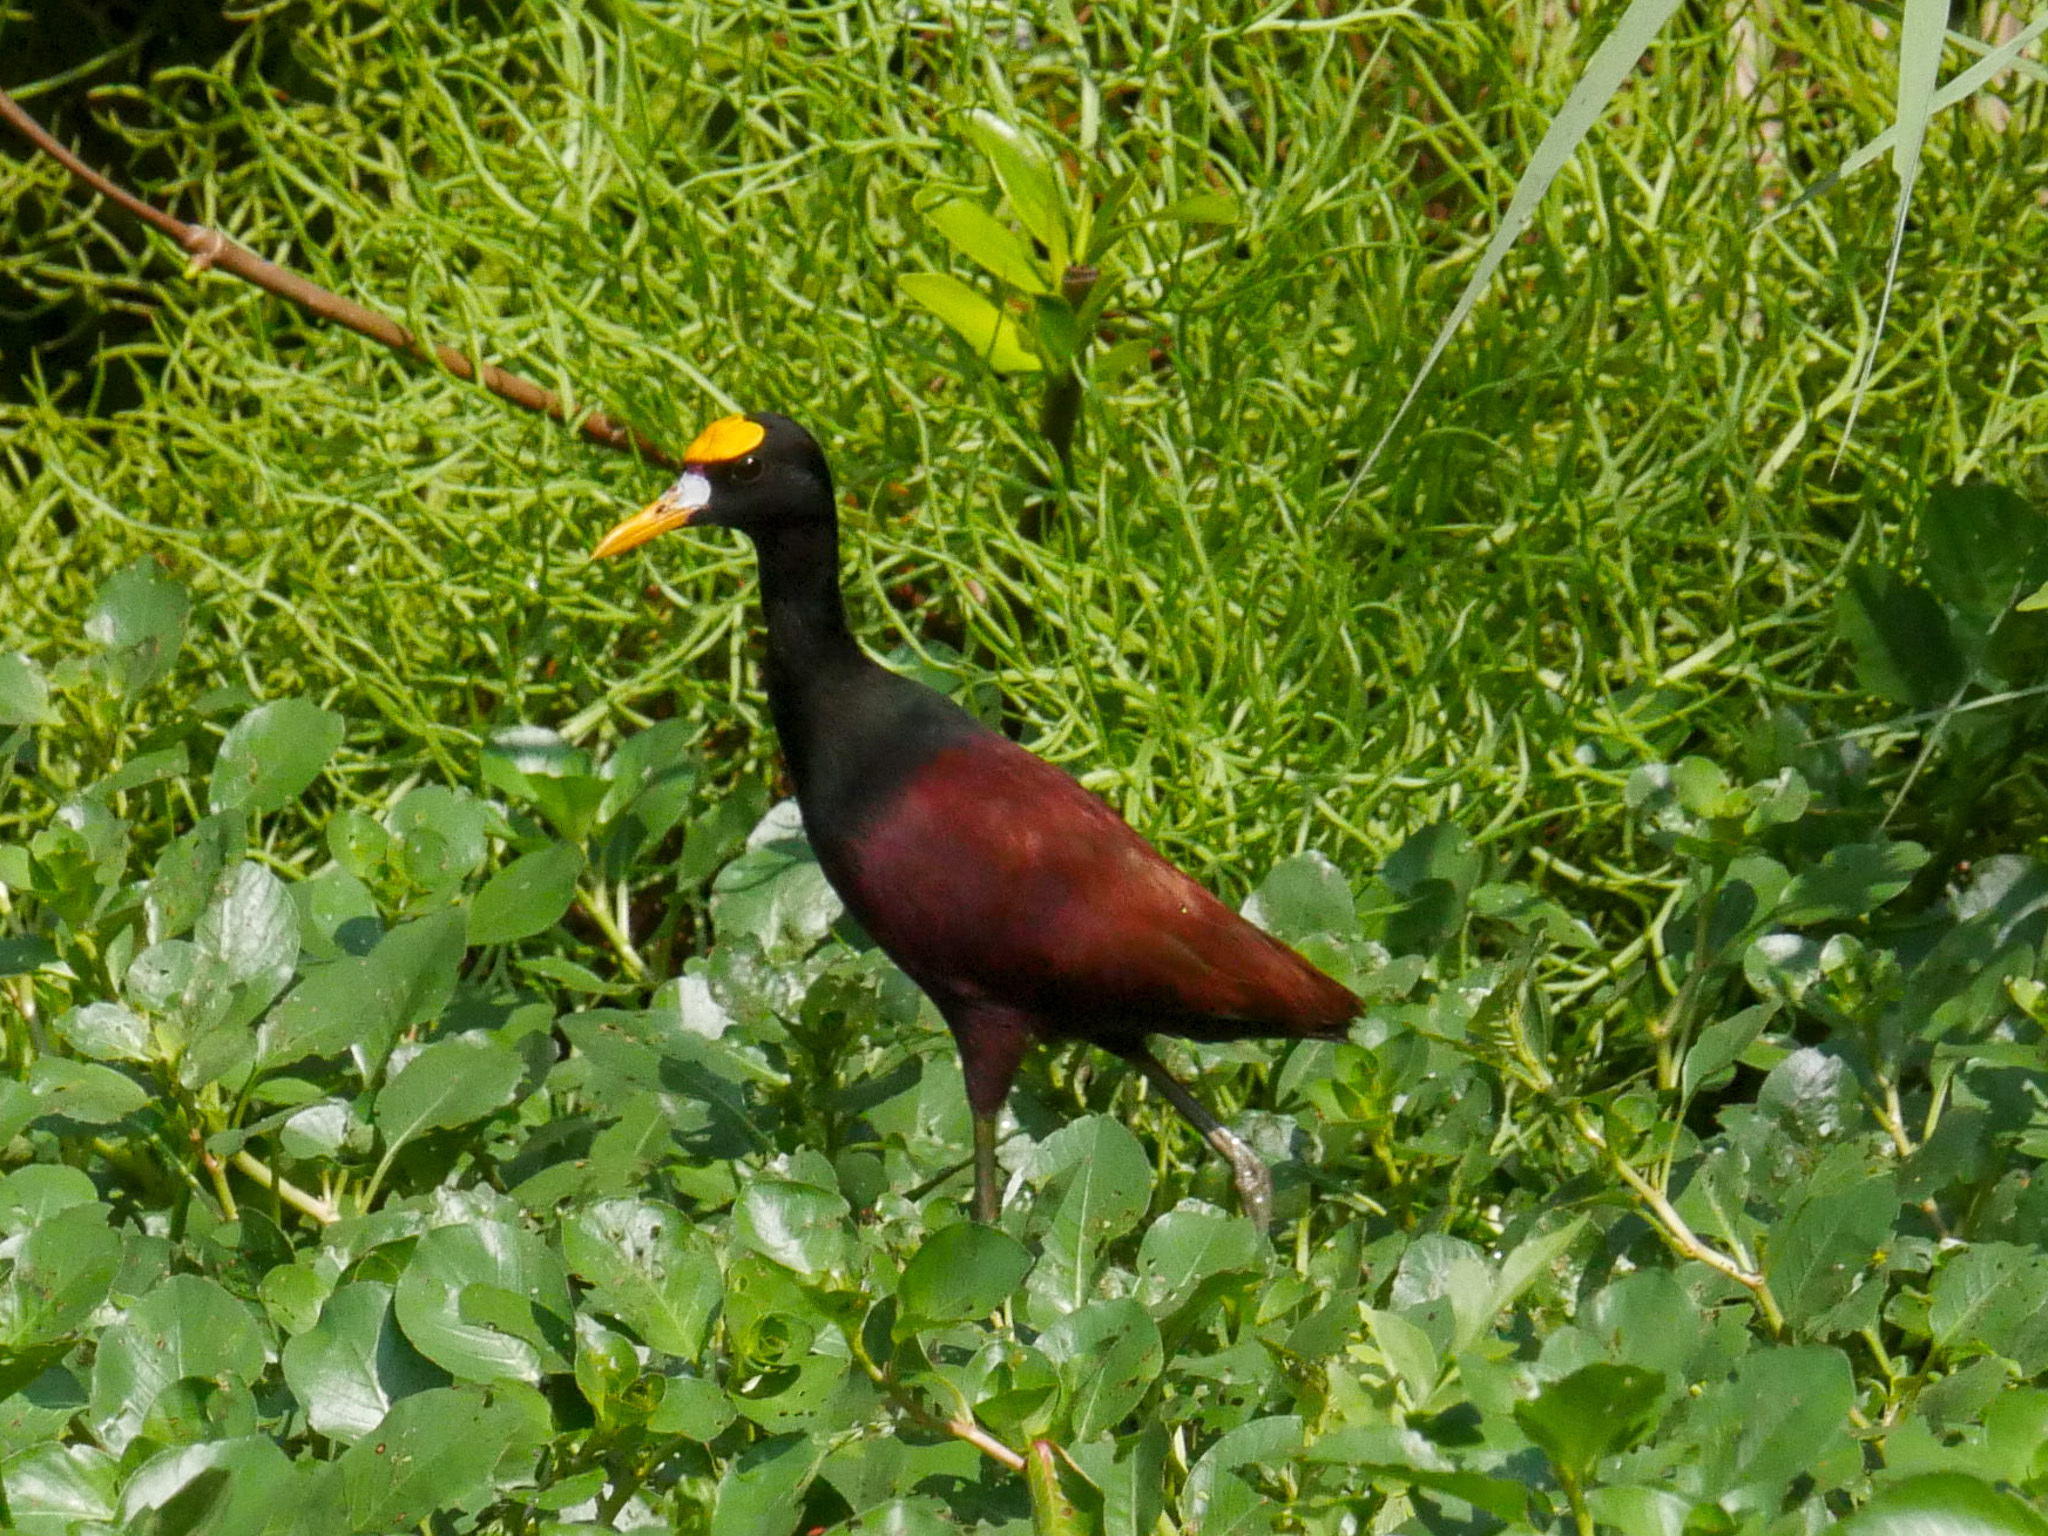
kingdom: Animalia
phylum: Chordata
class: Aves
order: Charadriiformes
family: Jacanidae
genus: Jacana
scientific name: Jacana spinosa
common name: Northern jacana
